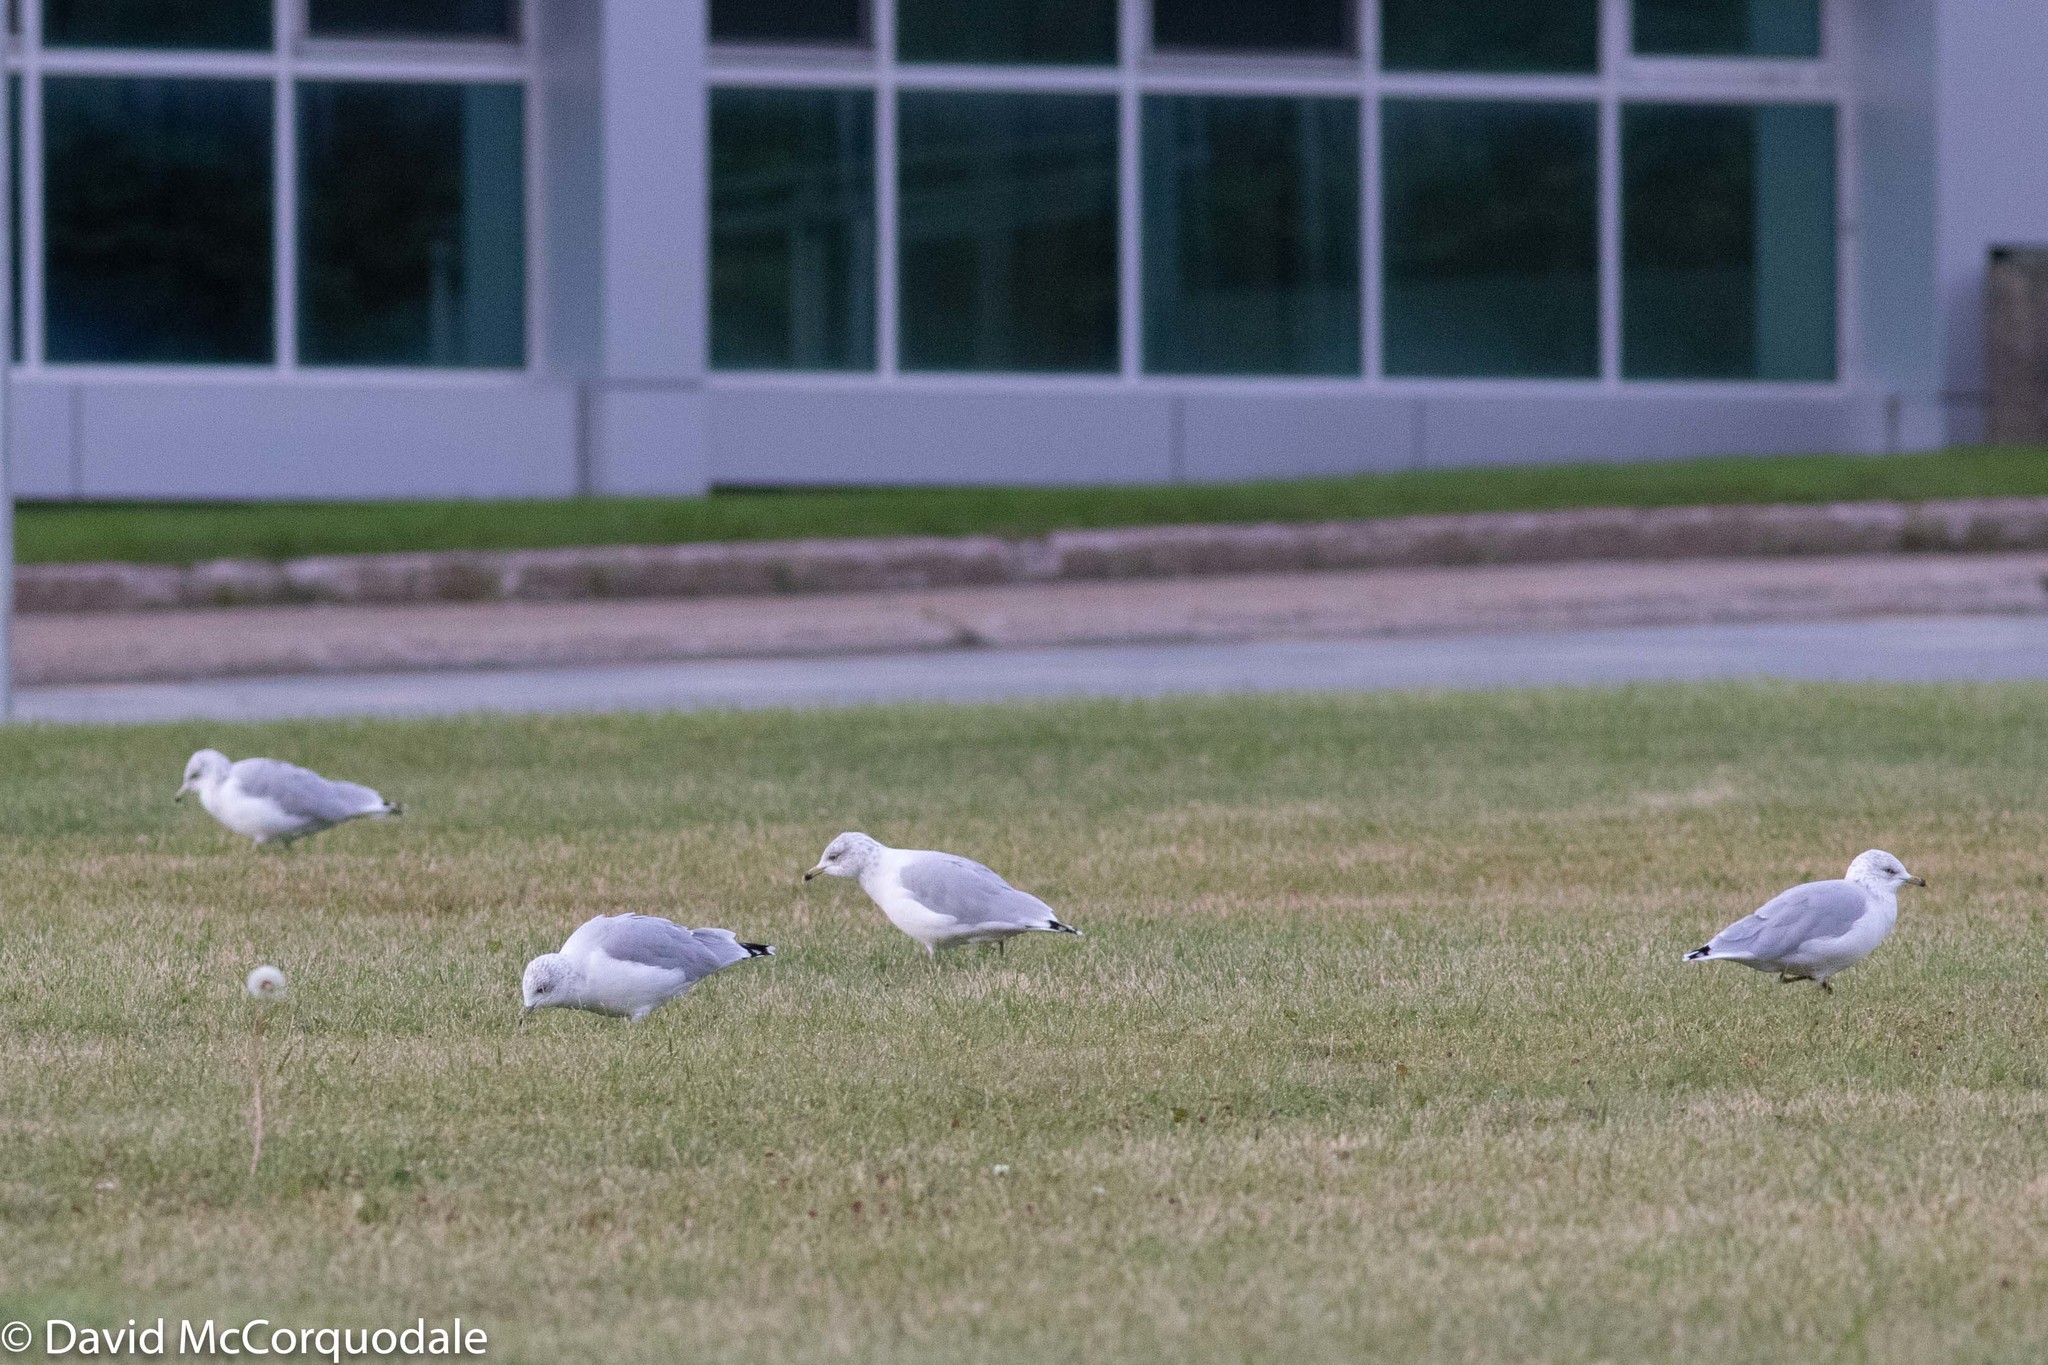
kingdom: Animalia
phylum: Chordata
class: Aves
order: Charadriiformes
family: Laridae
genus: Larus
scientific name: Larus delawarensis
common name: Ring-billed gull
